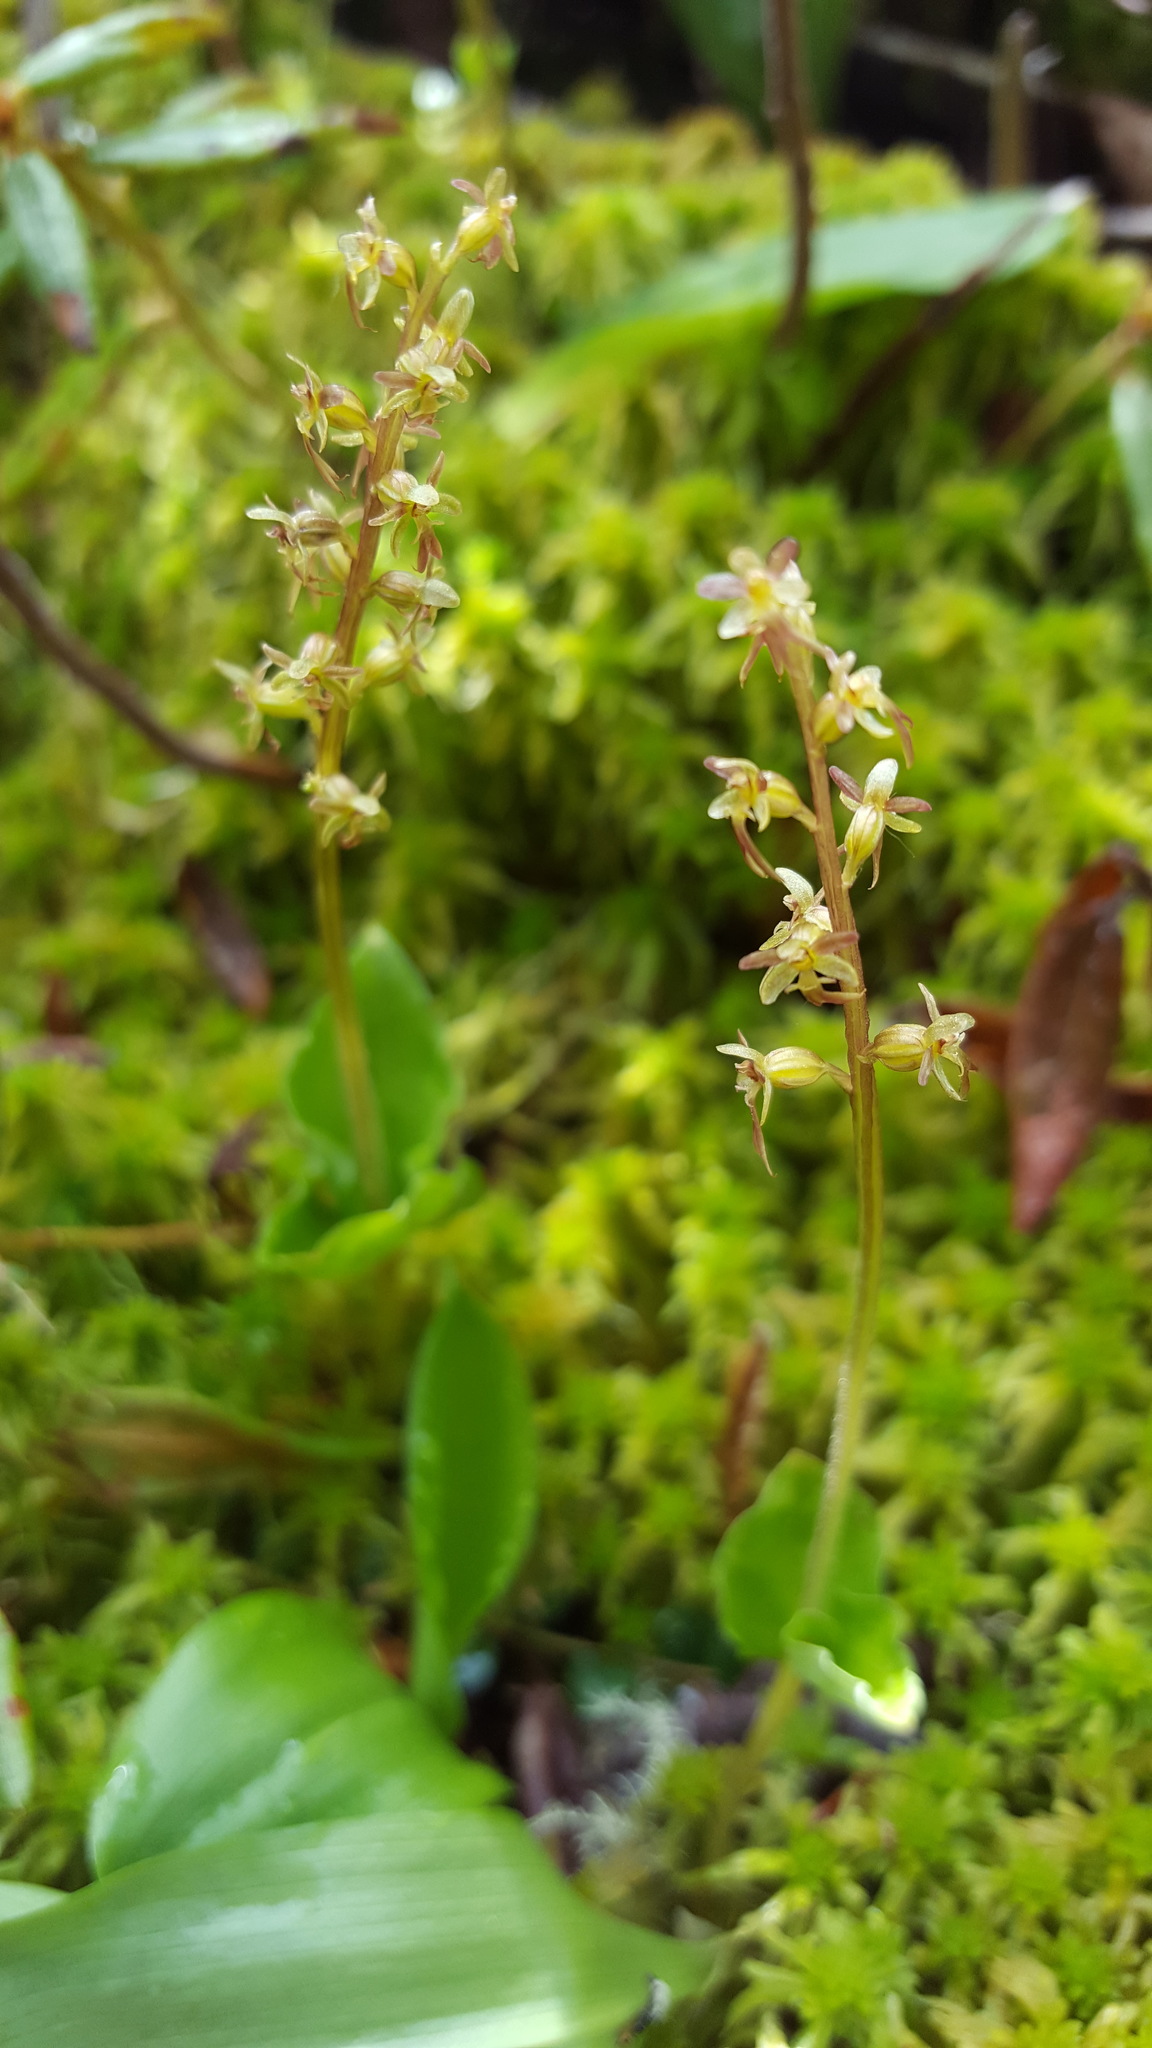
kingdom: Plantae
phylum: Tracheophyta
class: Liliopsida
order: Asparagales
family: Orchidaceae
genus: Neottia
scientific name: Neottia cordata
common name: Lesser twayblade
